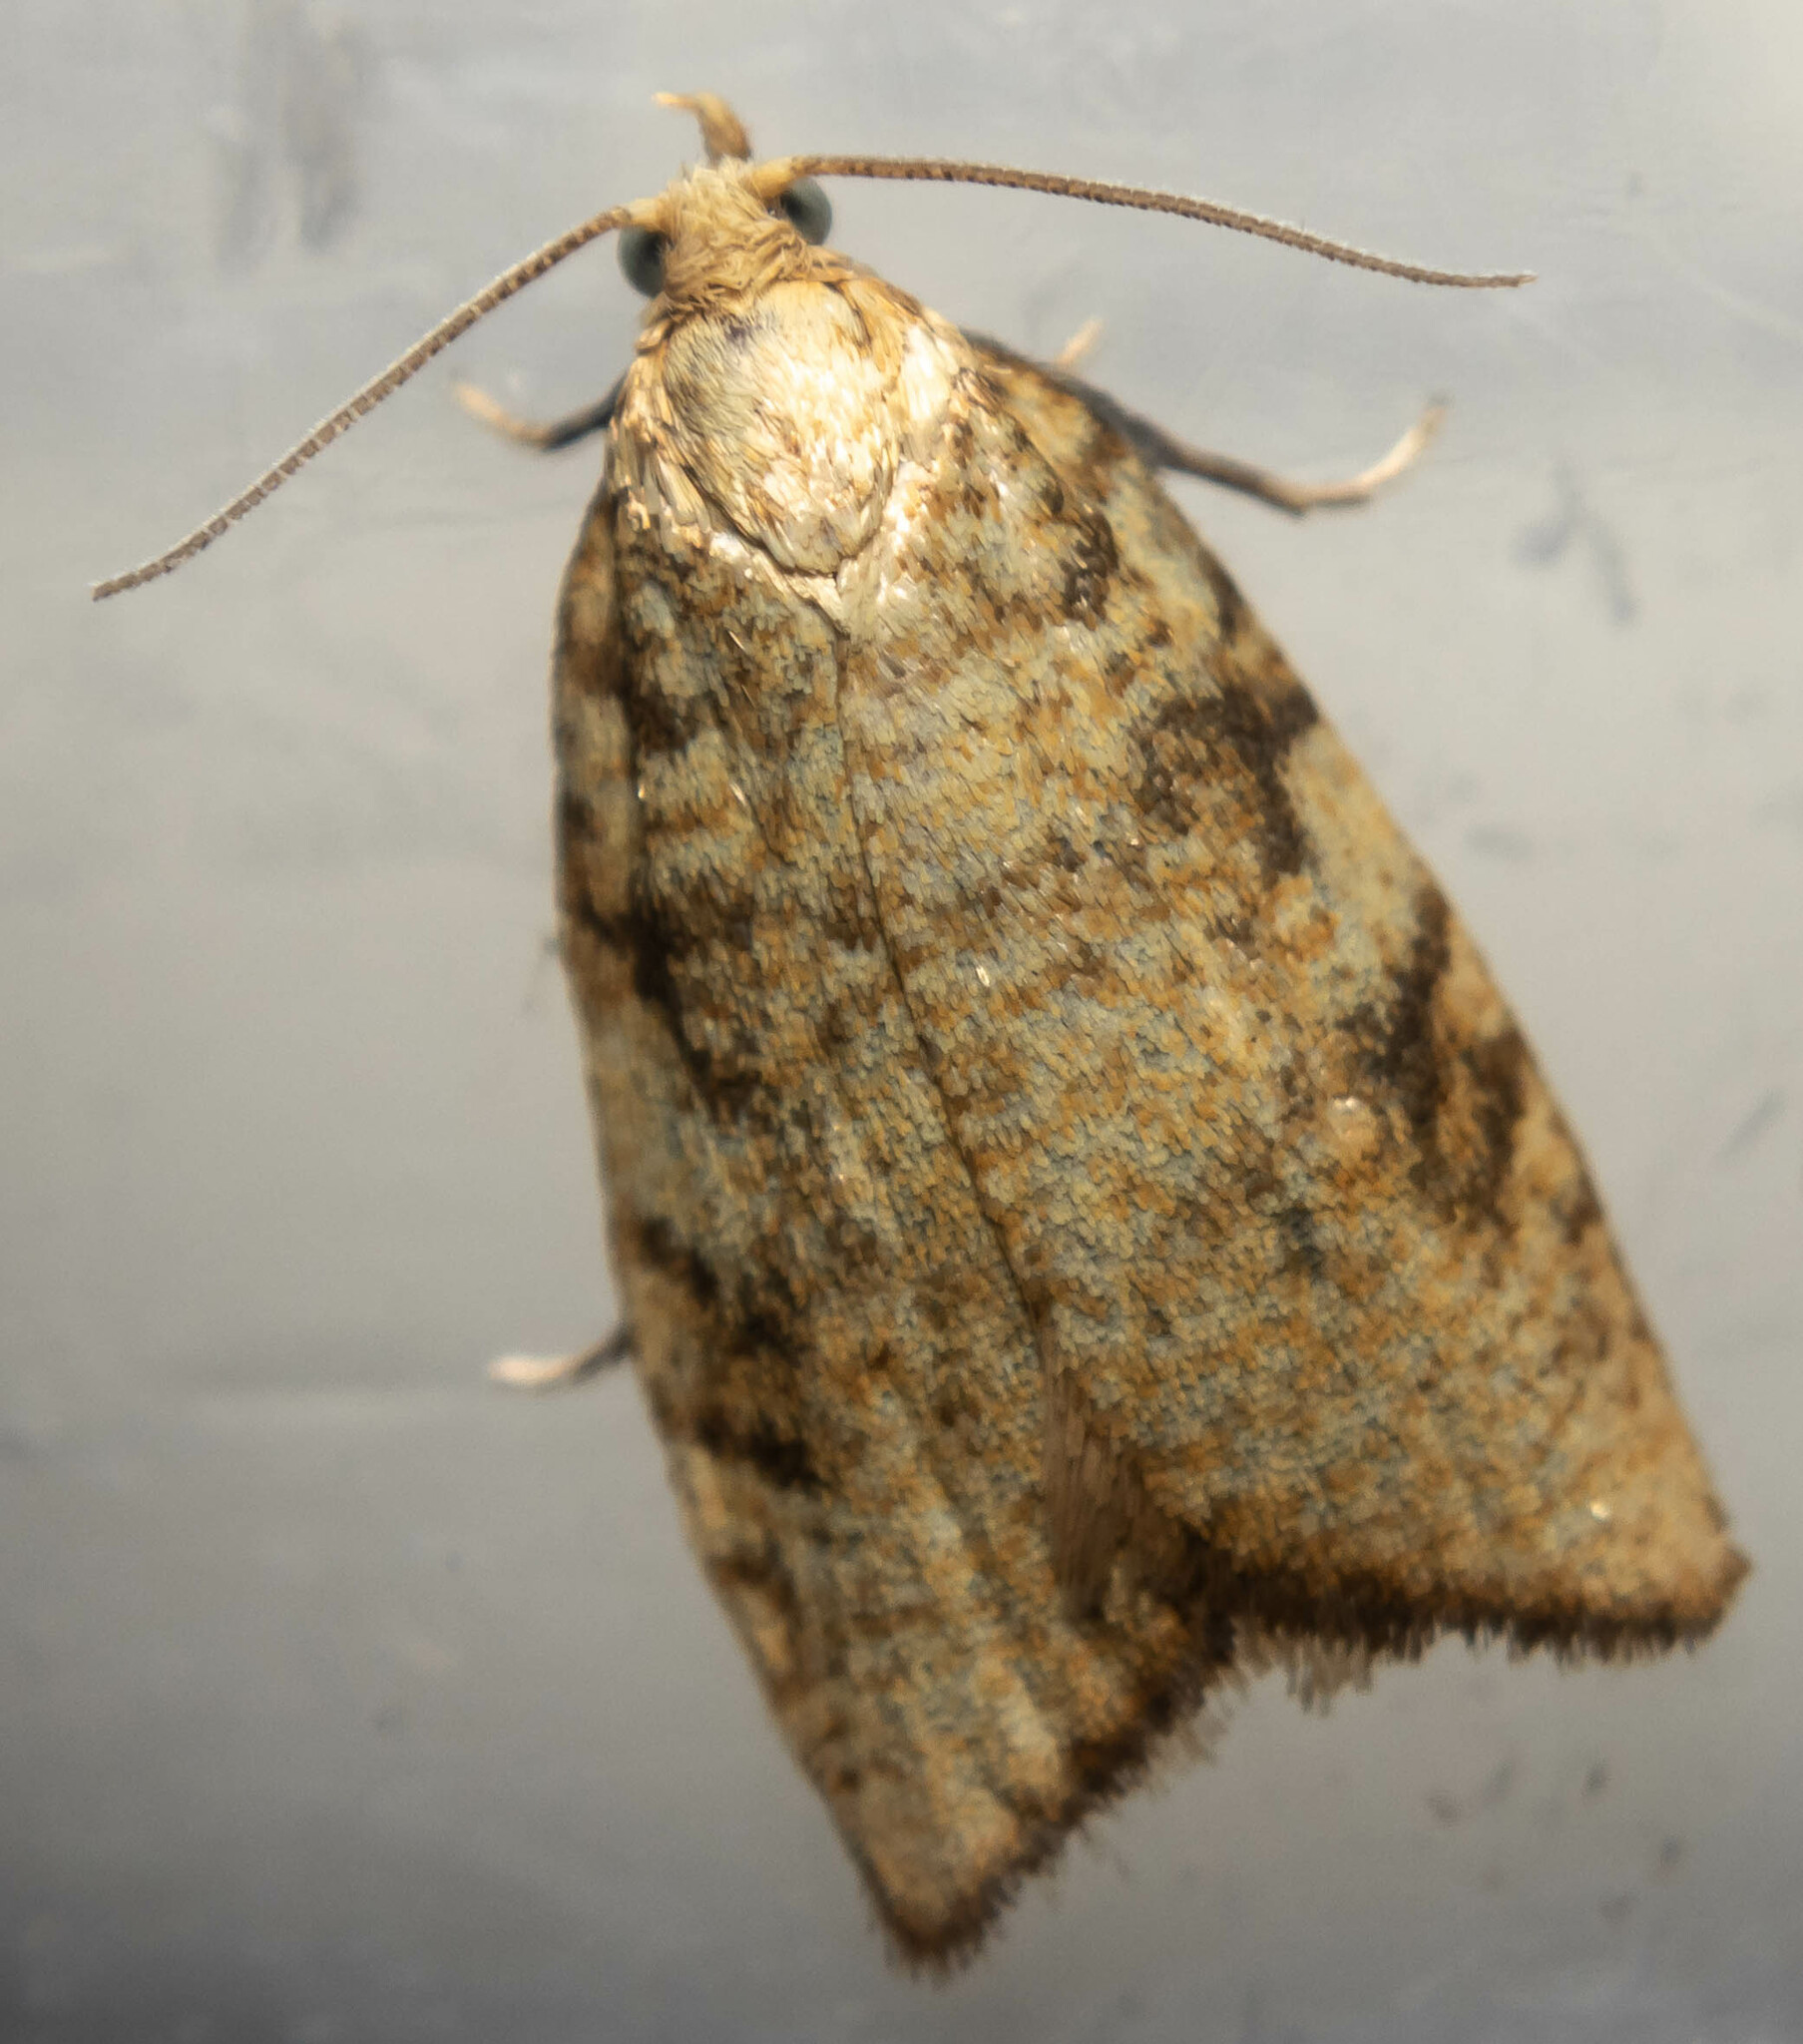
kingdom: Animalia
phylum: Arthropoda
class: Insecta
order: Lepidoptera
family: Tortricidae
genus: Aleimma
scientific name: Aleimma loeflingiana
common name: Yellow oak button
